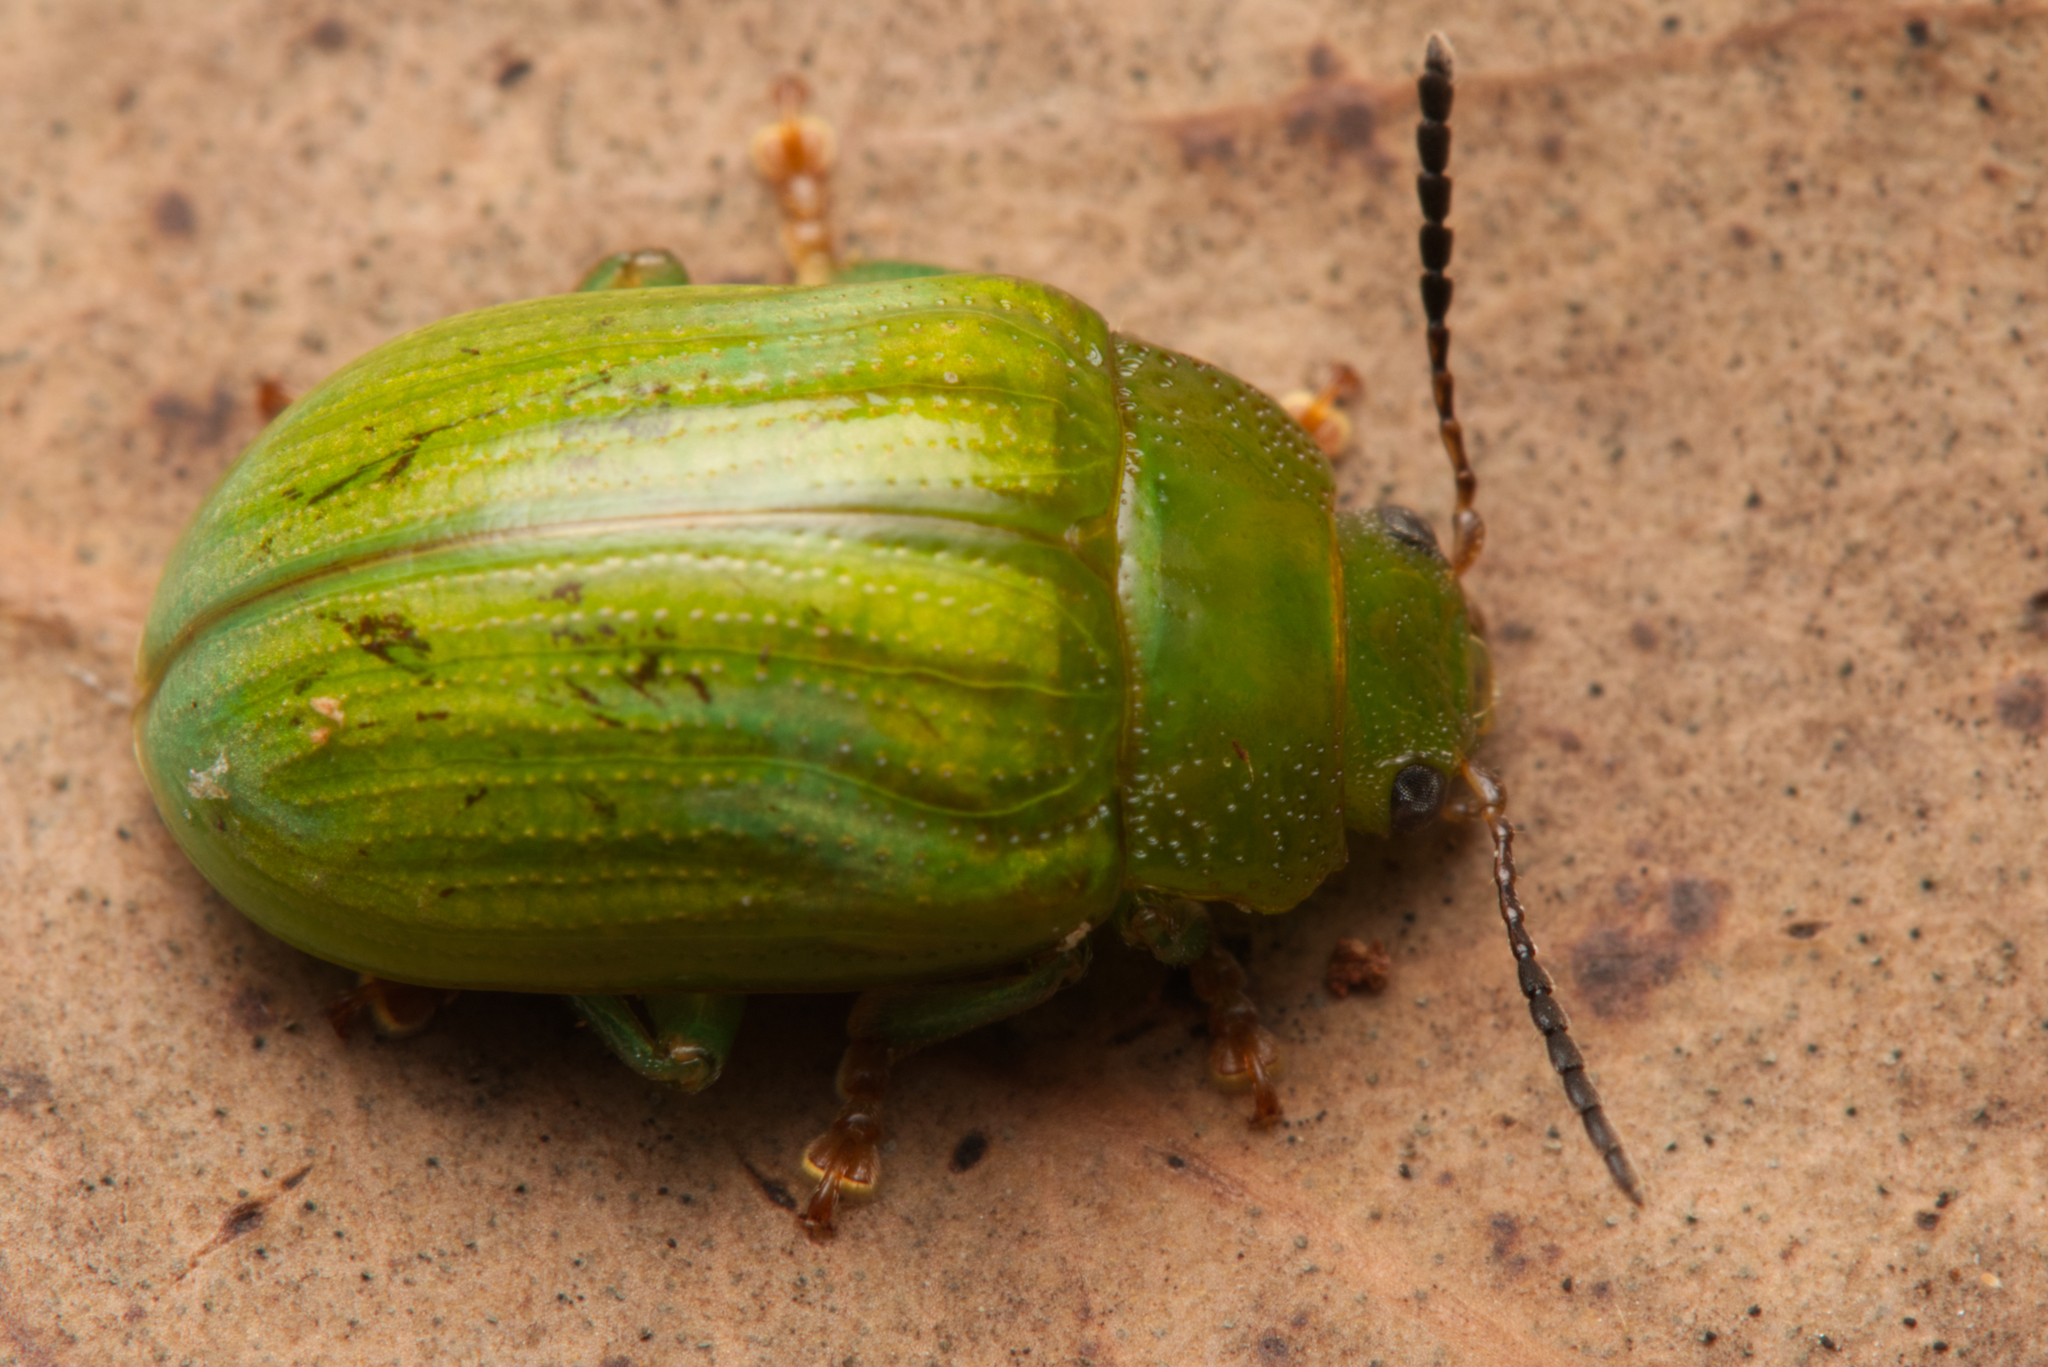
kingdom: Animalia
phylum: Arthropoda
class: Insecta
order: Coleoptera
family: Chrysomelidae
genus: Calomela
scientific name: Calomela
